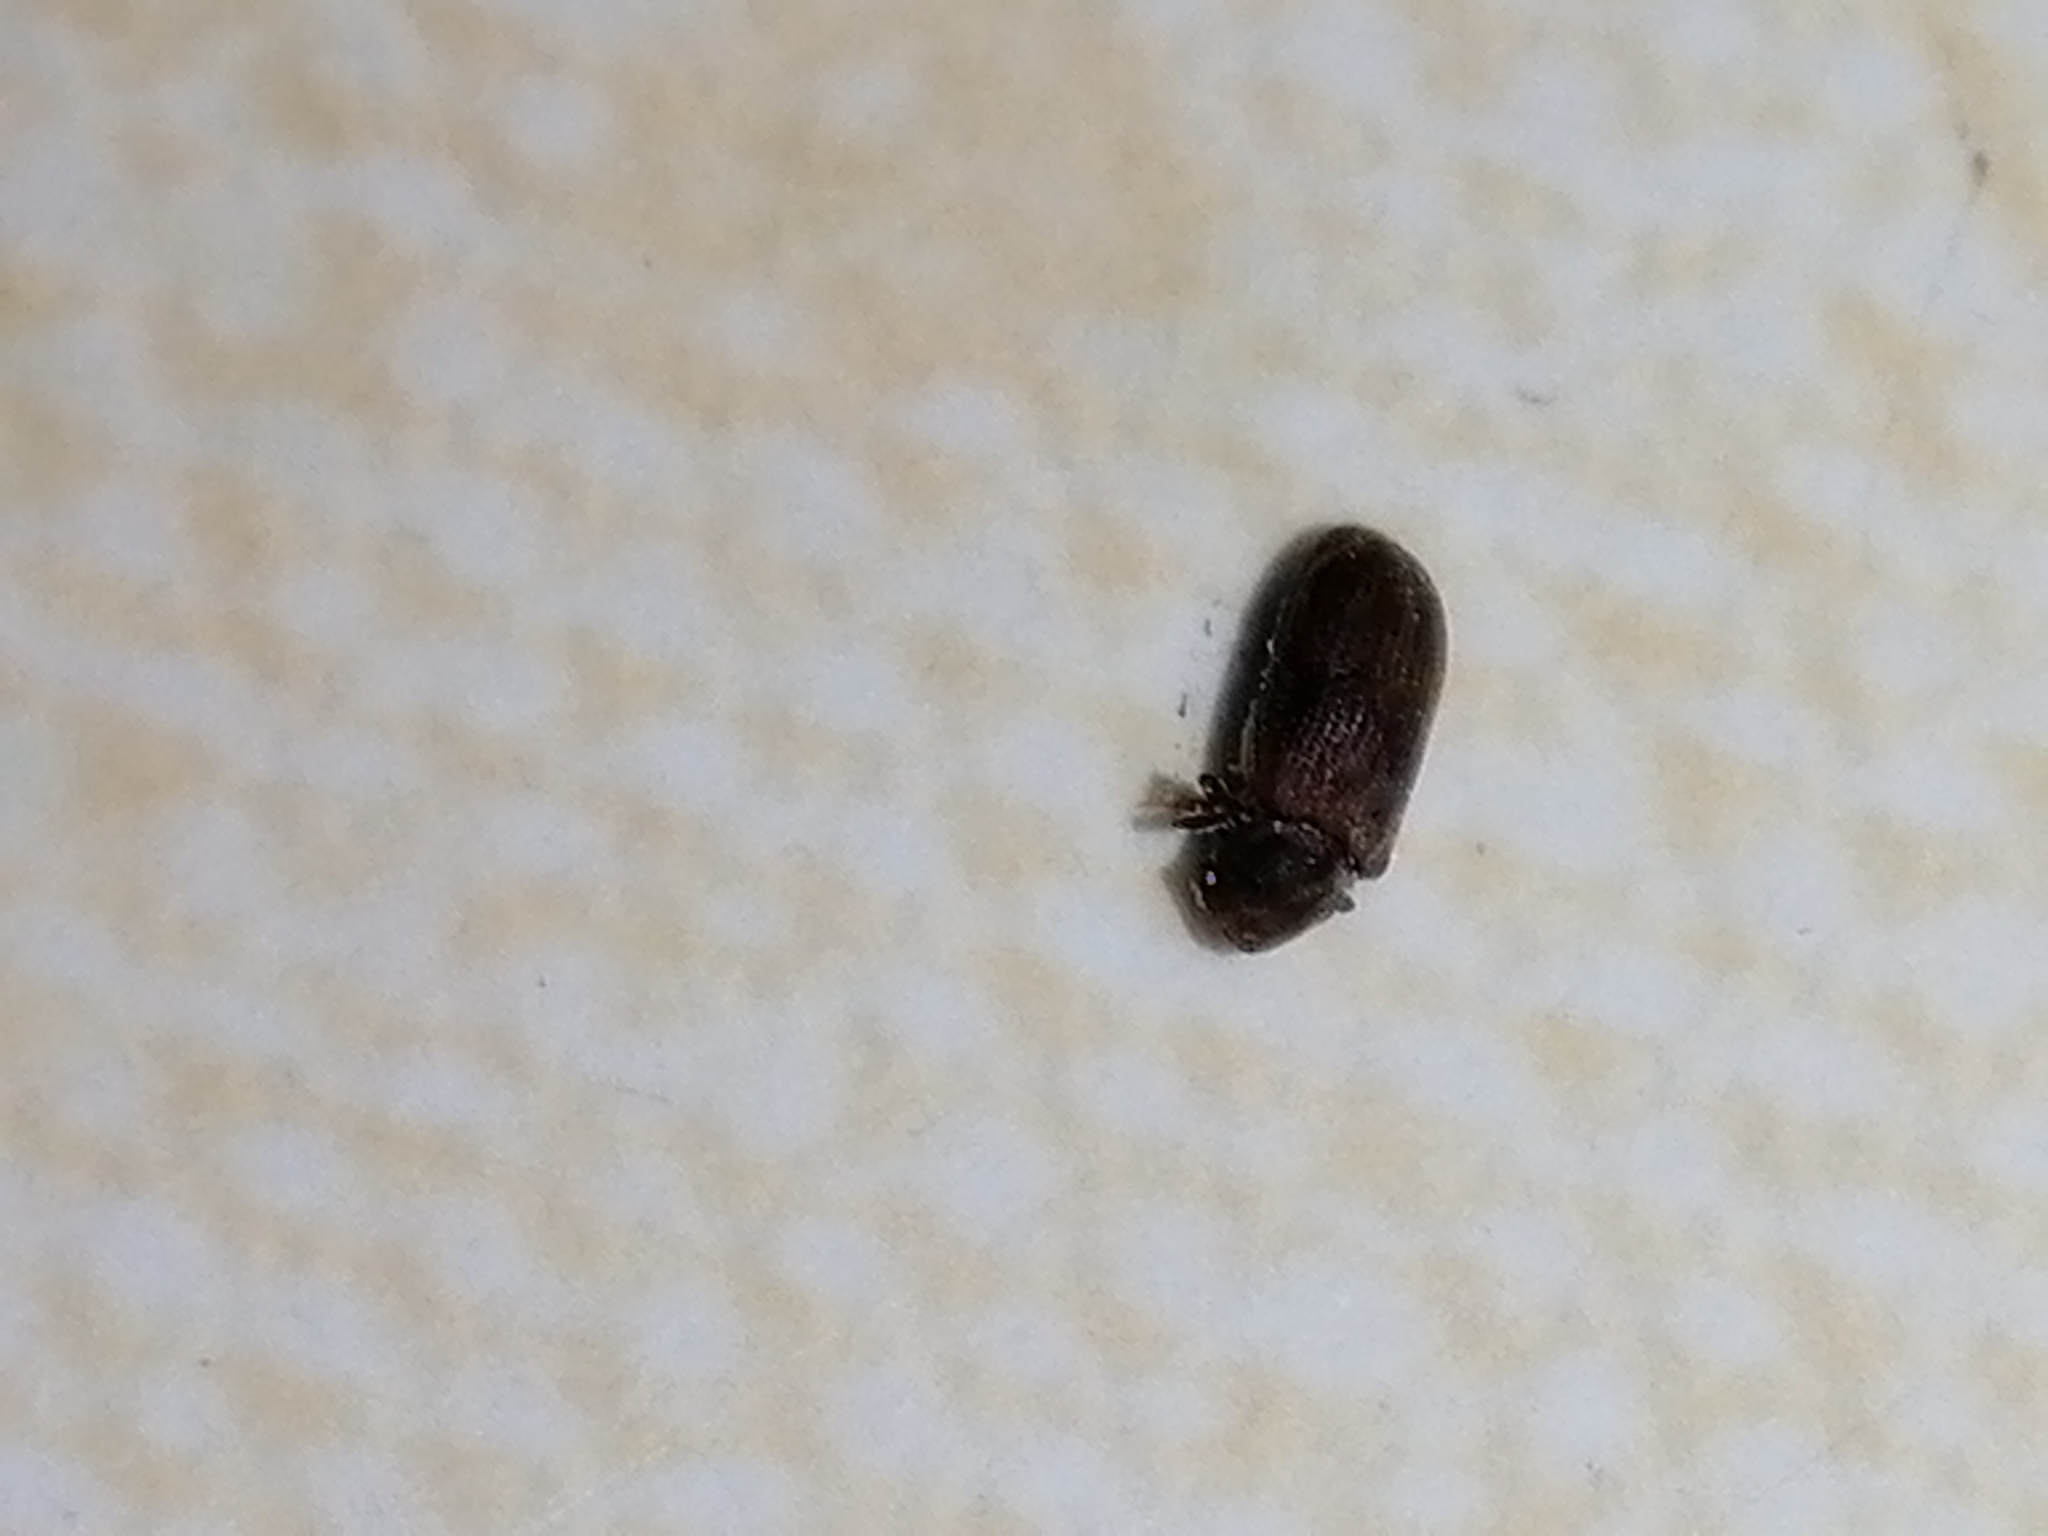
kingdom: Animalia
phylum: Arthropoda
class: Insecta
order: Coleoptera
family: Anobiidae
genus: Anobium
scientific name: Anobium punctatum
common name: Furniture beetle
